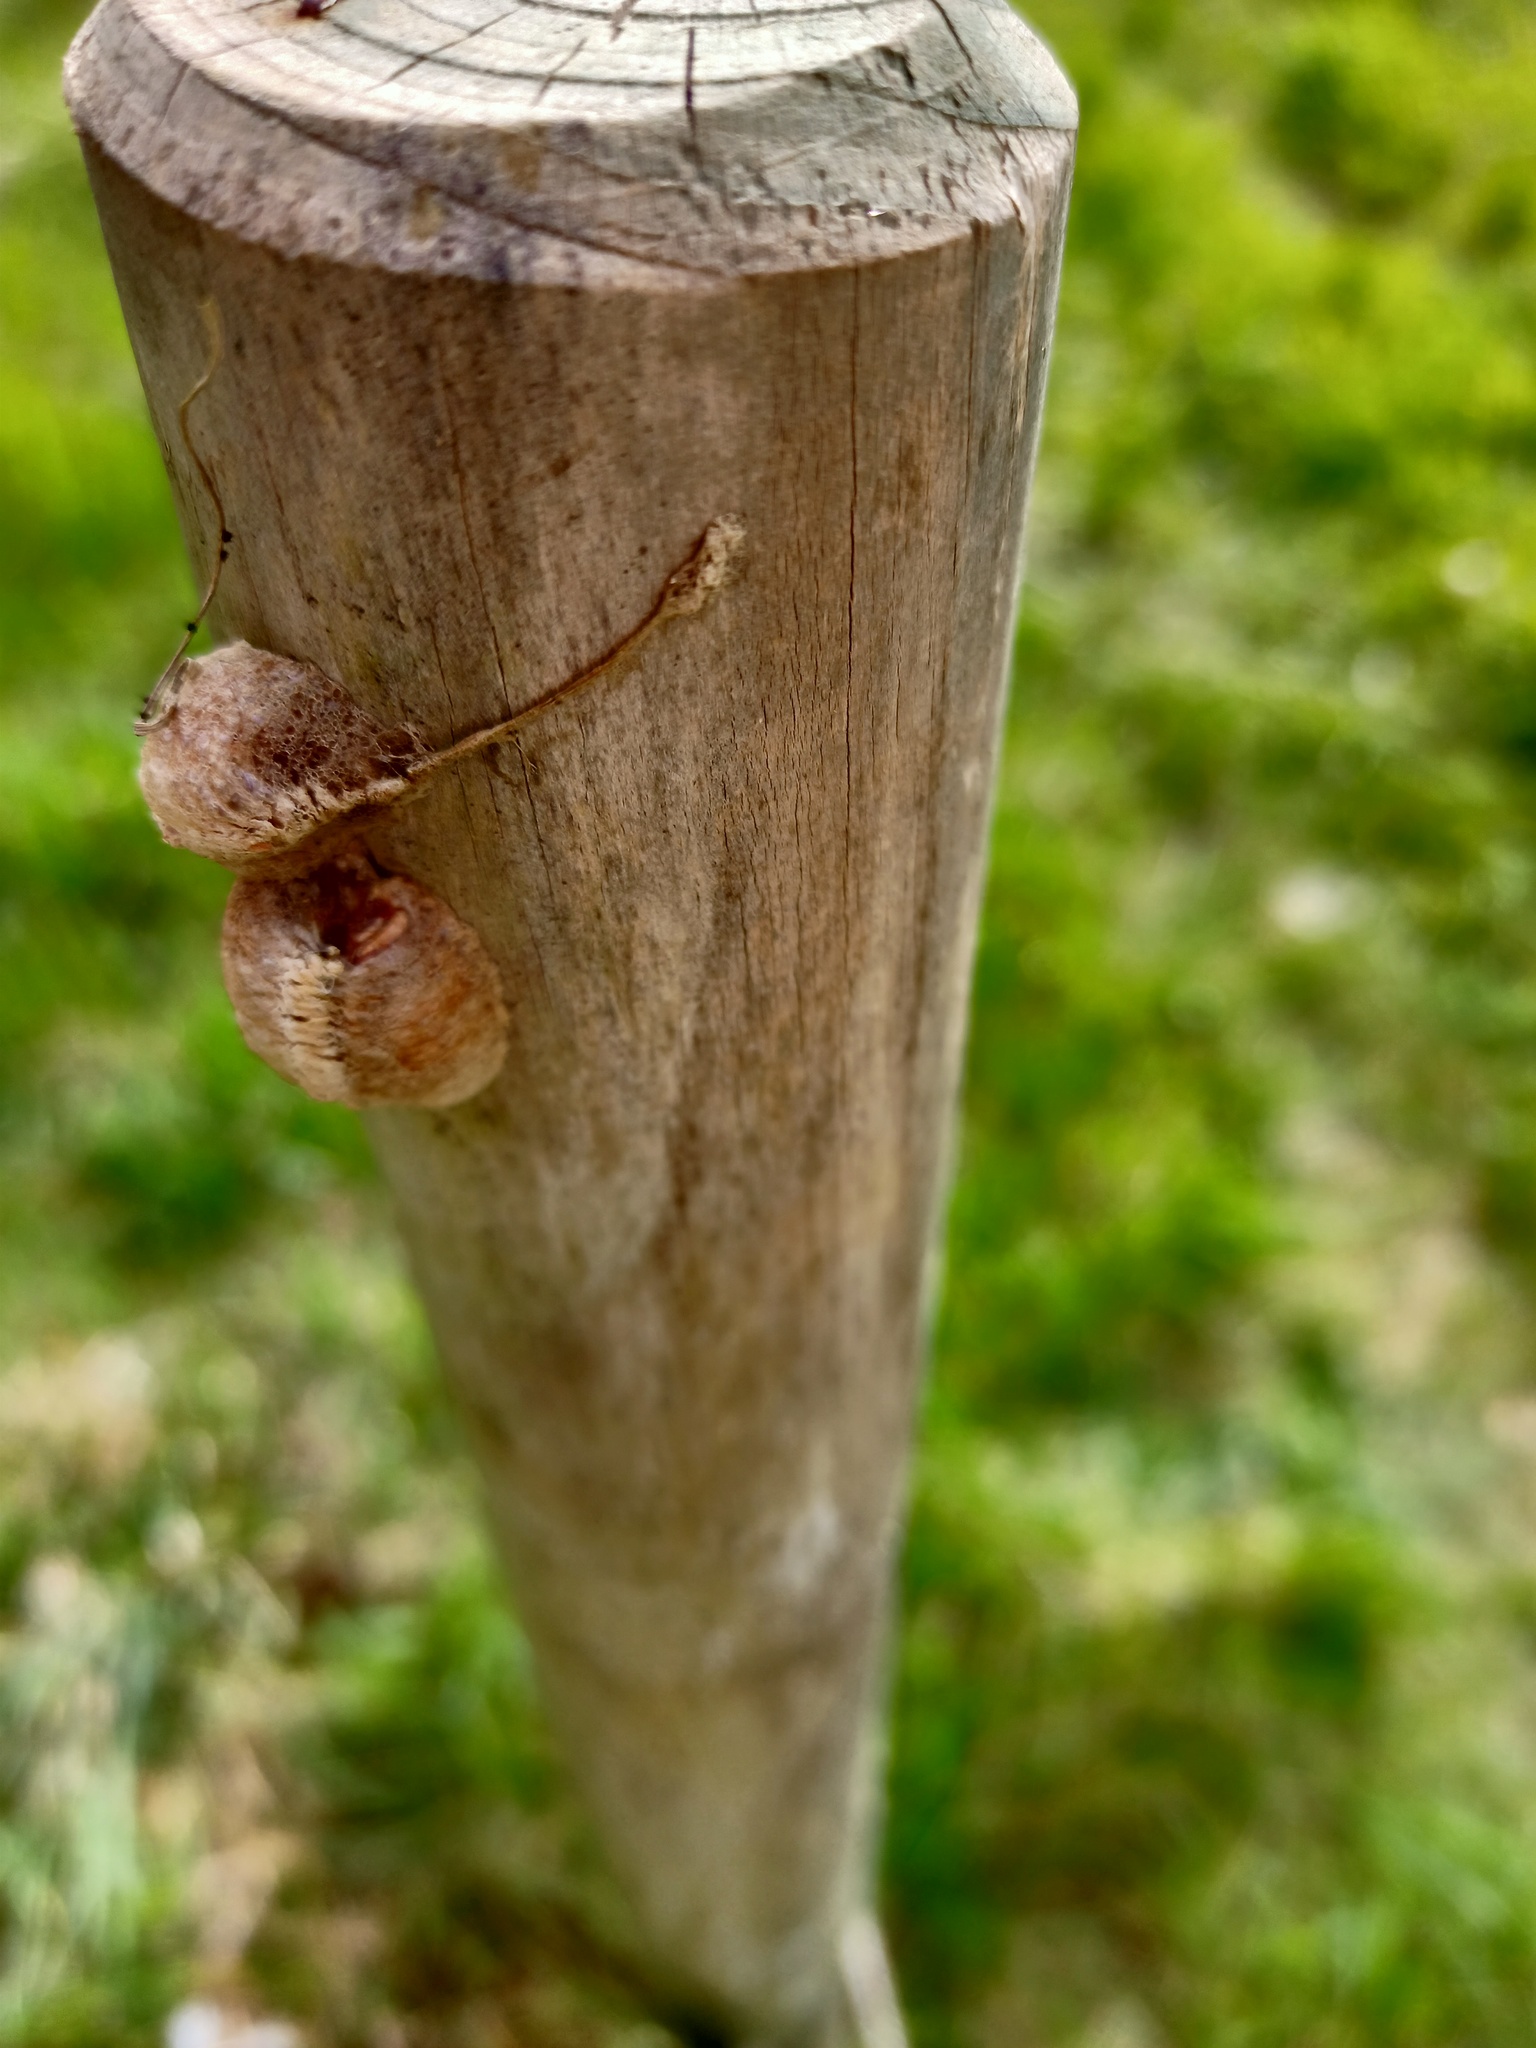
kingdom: Animalia
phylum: Arthropoda
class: Insecta
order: Mantodea
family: Mantidae
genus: Mantis
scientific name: Mantis religiosa
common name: Praying mantis
